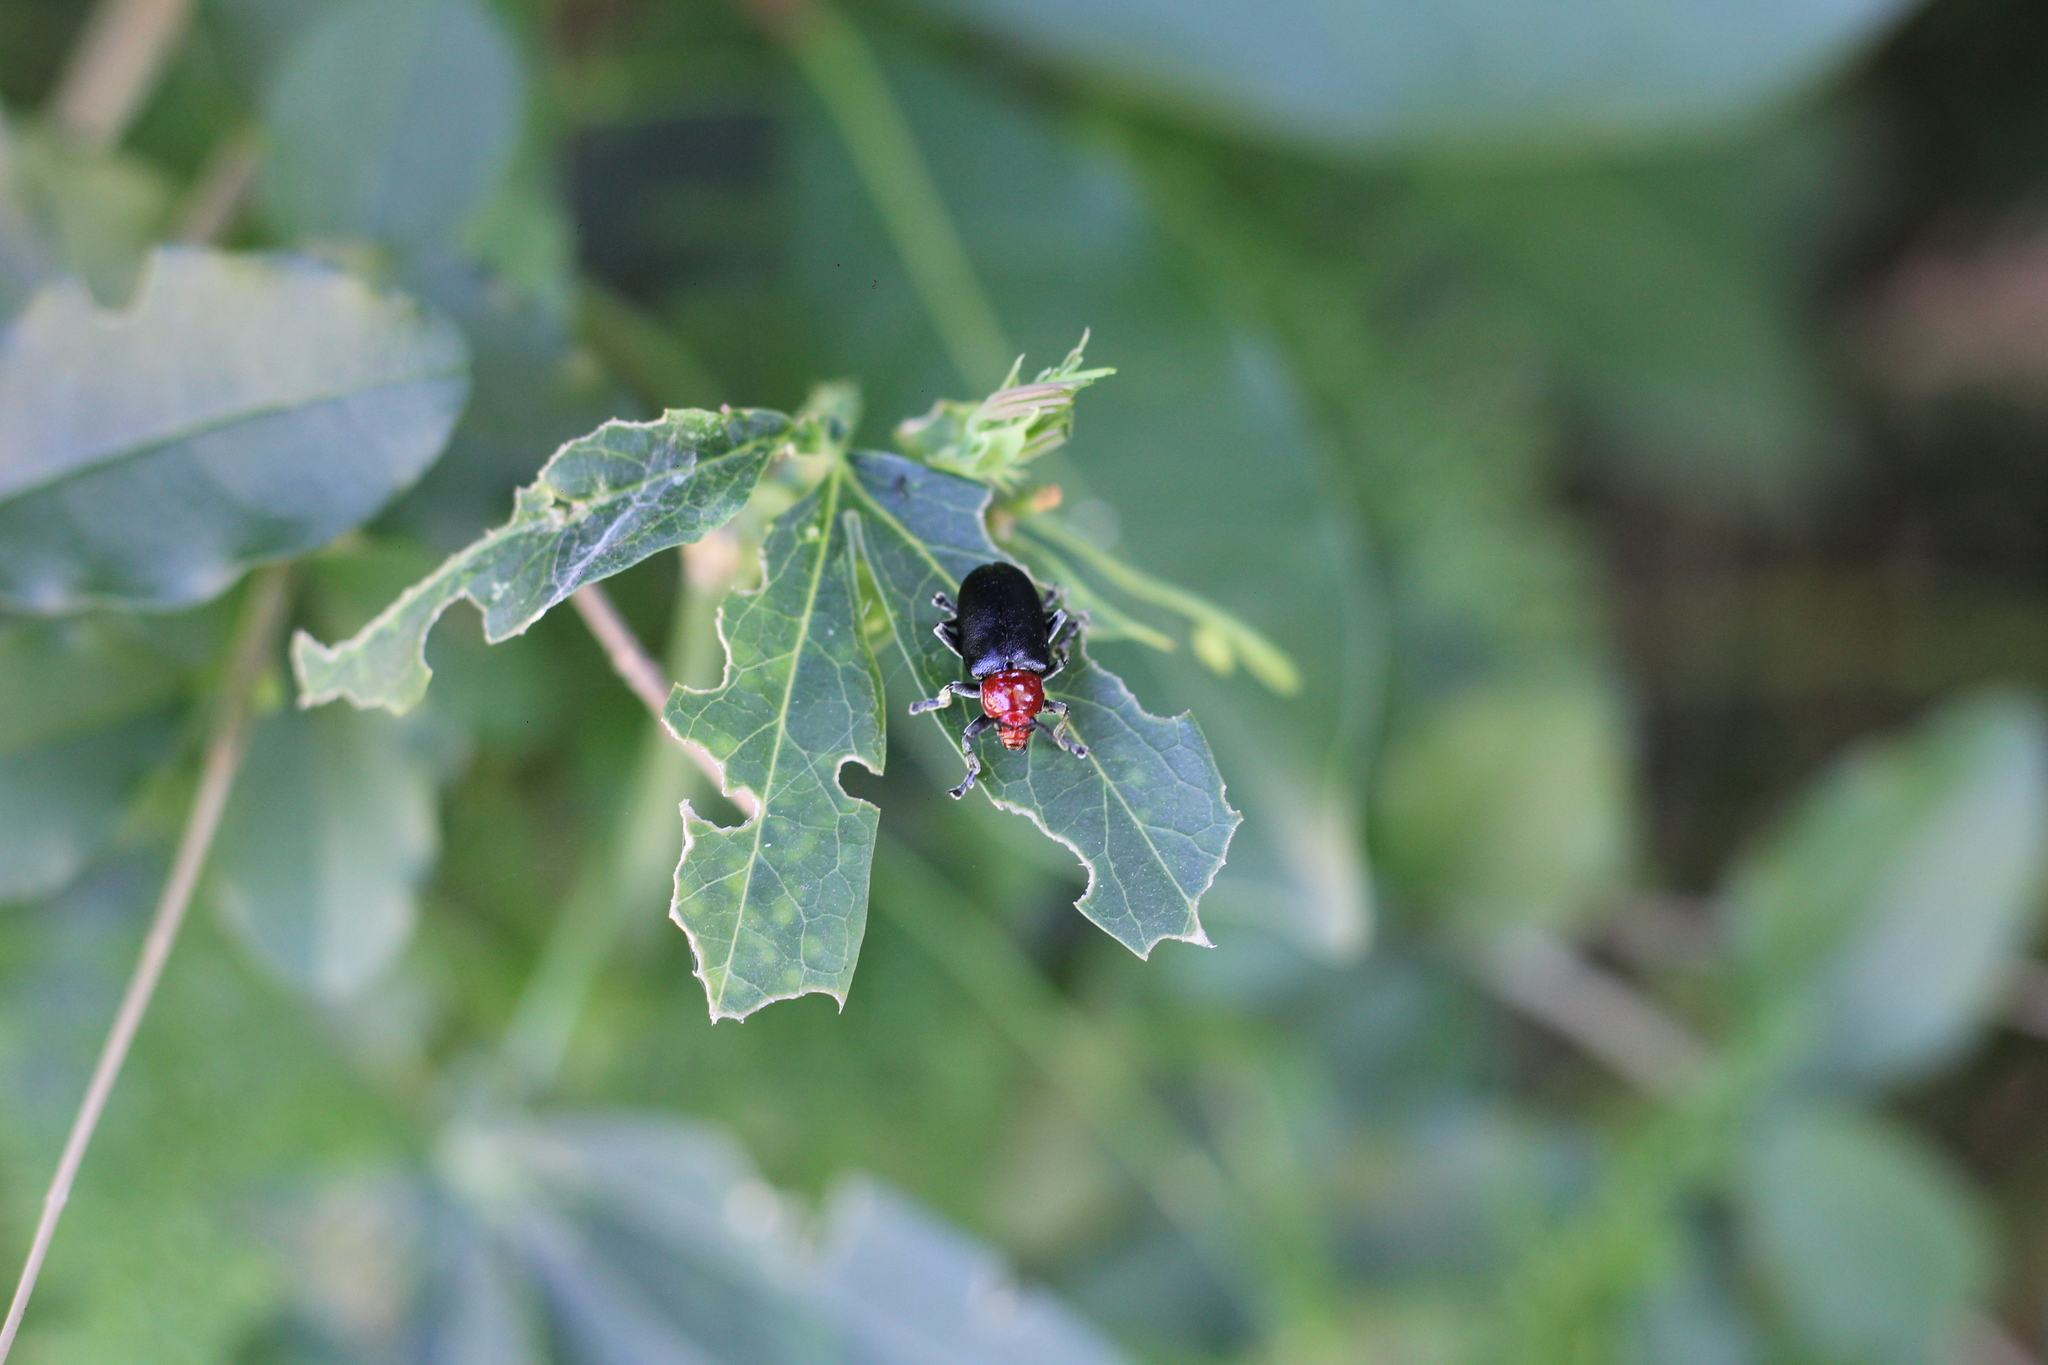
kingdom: Animalia
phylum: Arthropoda
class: Insecta
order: Coleoptera
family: Chrysomelidae
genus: Cacoscelis
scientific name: Cacoscelis
